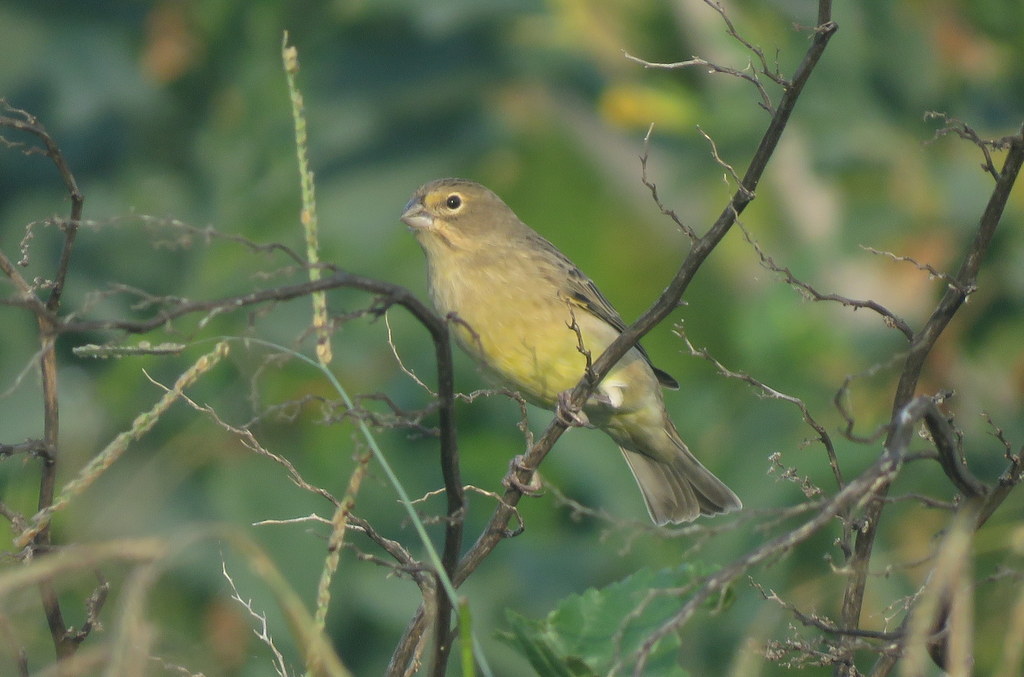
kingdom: Animalia
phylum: Chordata
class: Aves
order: Passeriformes
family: Thraupidae
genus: Sicalis
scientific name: Sicalis luteola
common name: Grassland yellow-finch
